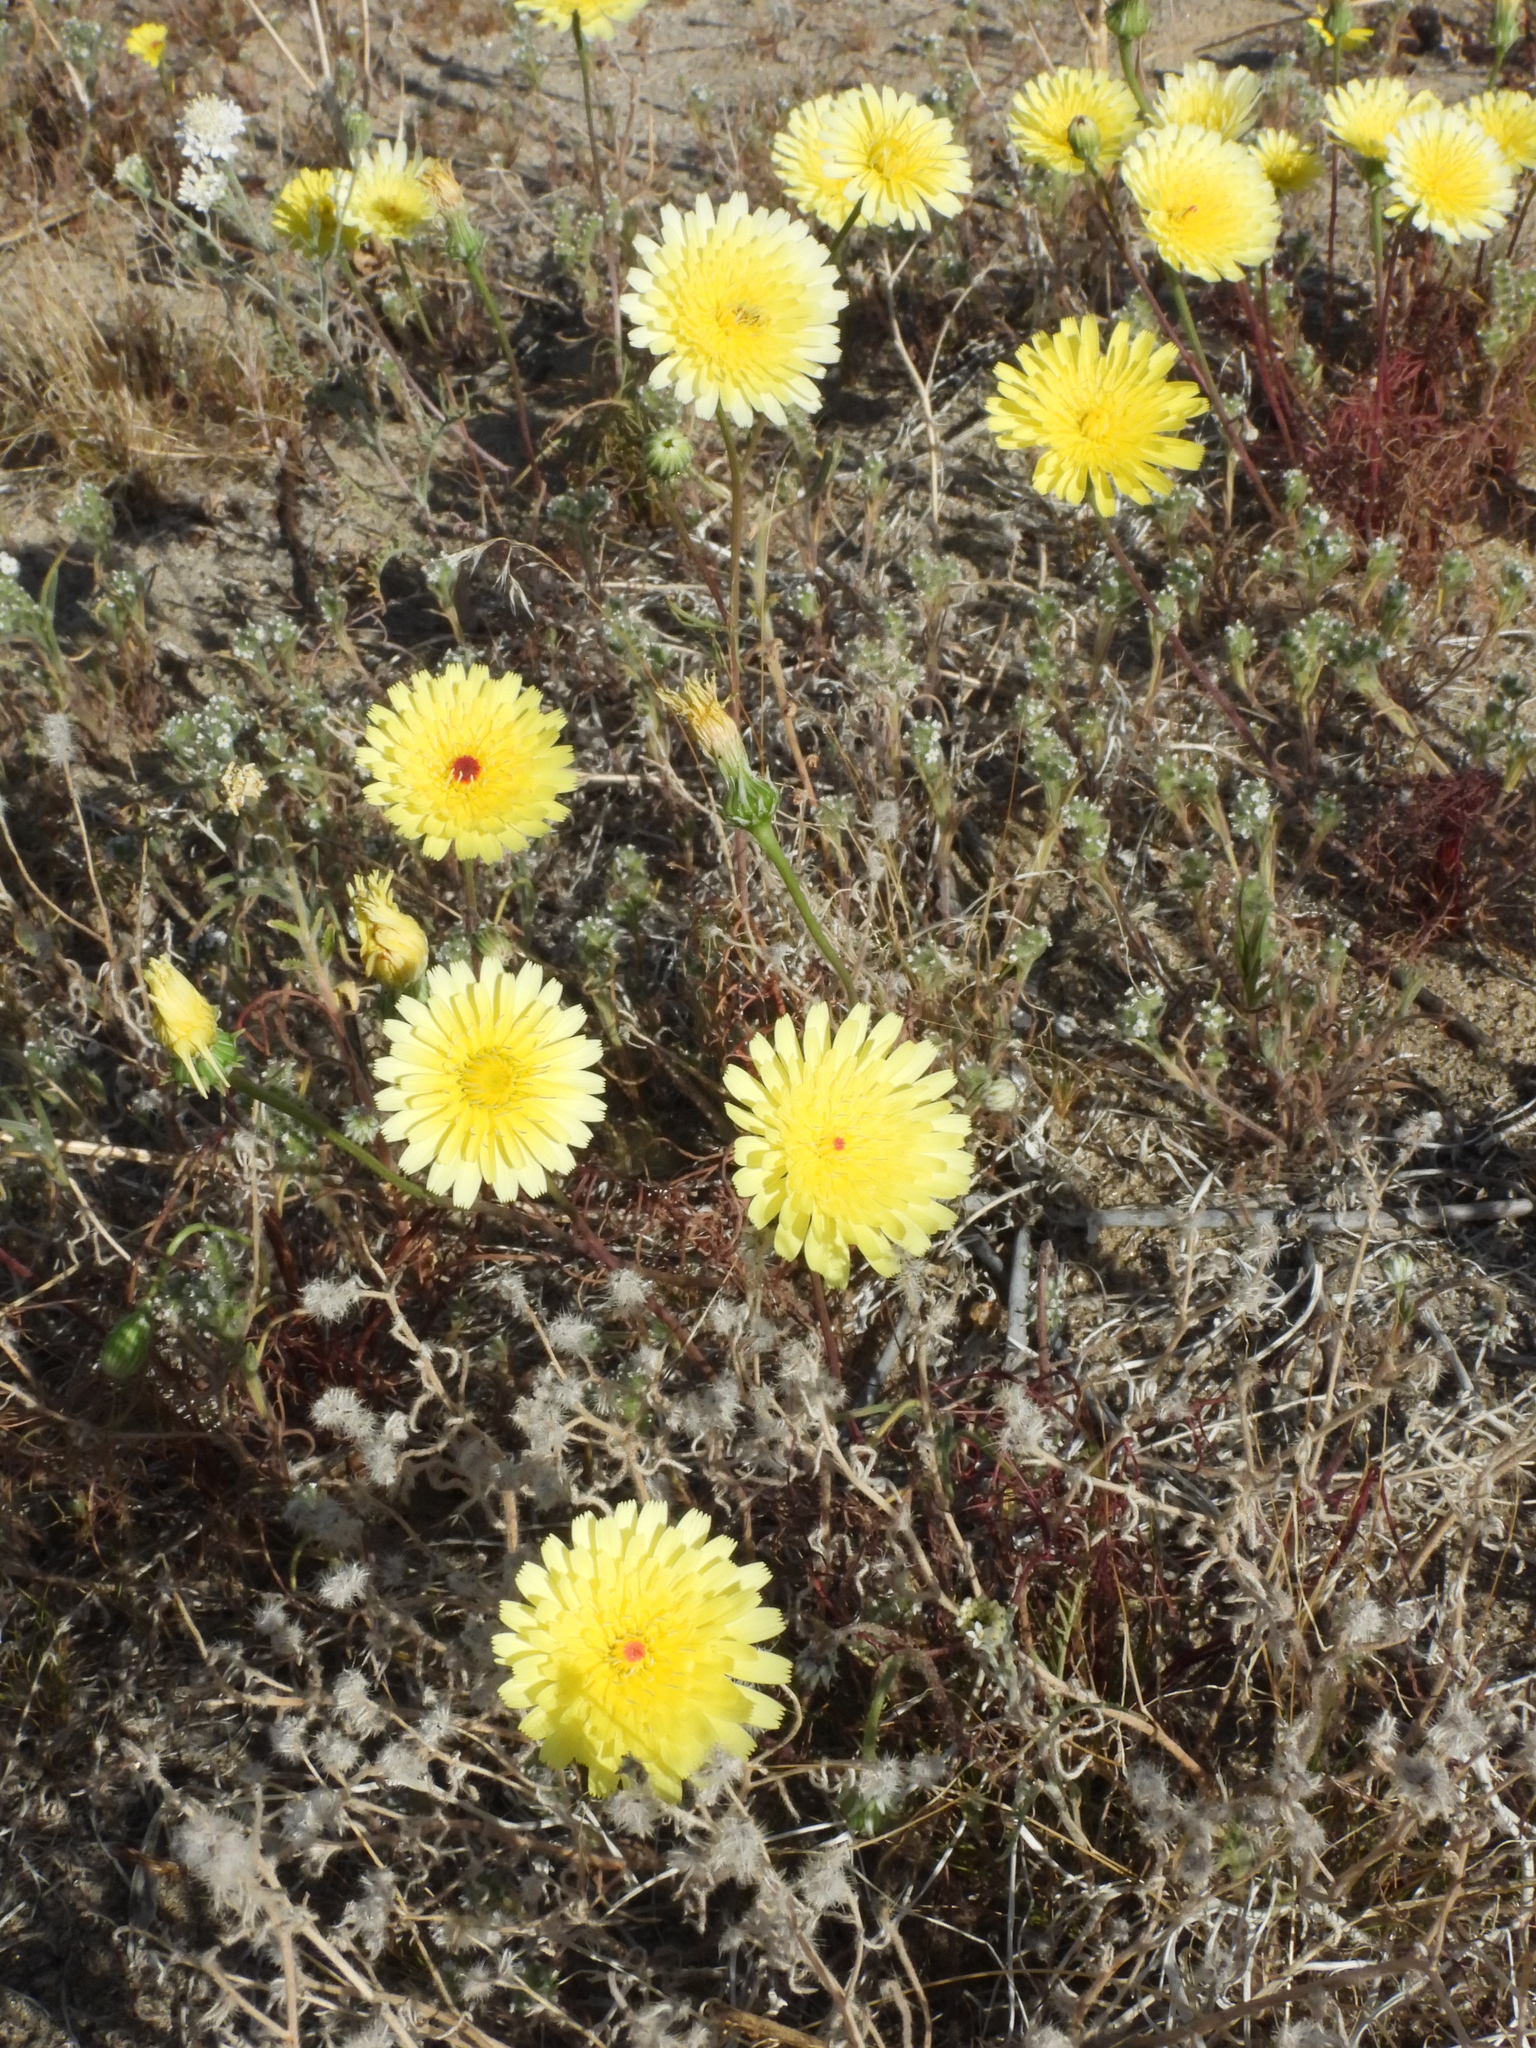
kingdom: Plantae
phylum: Tracheophyta
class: Magnoliopsida
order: Asterales
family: Asteraceae
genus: Malacothrix
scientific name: Malacothrix glabrata
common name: Smooth desert-dandelion
